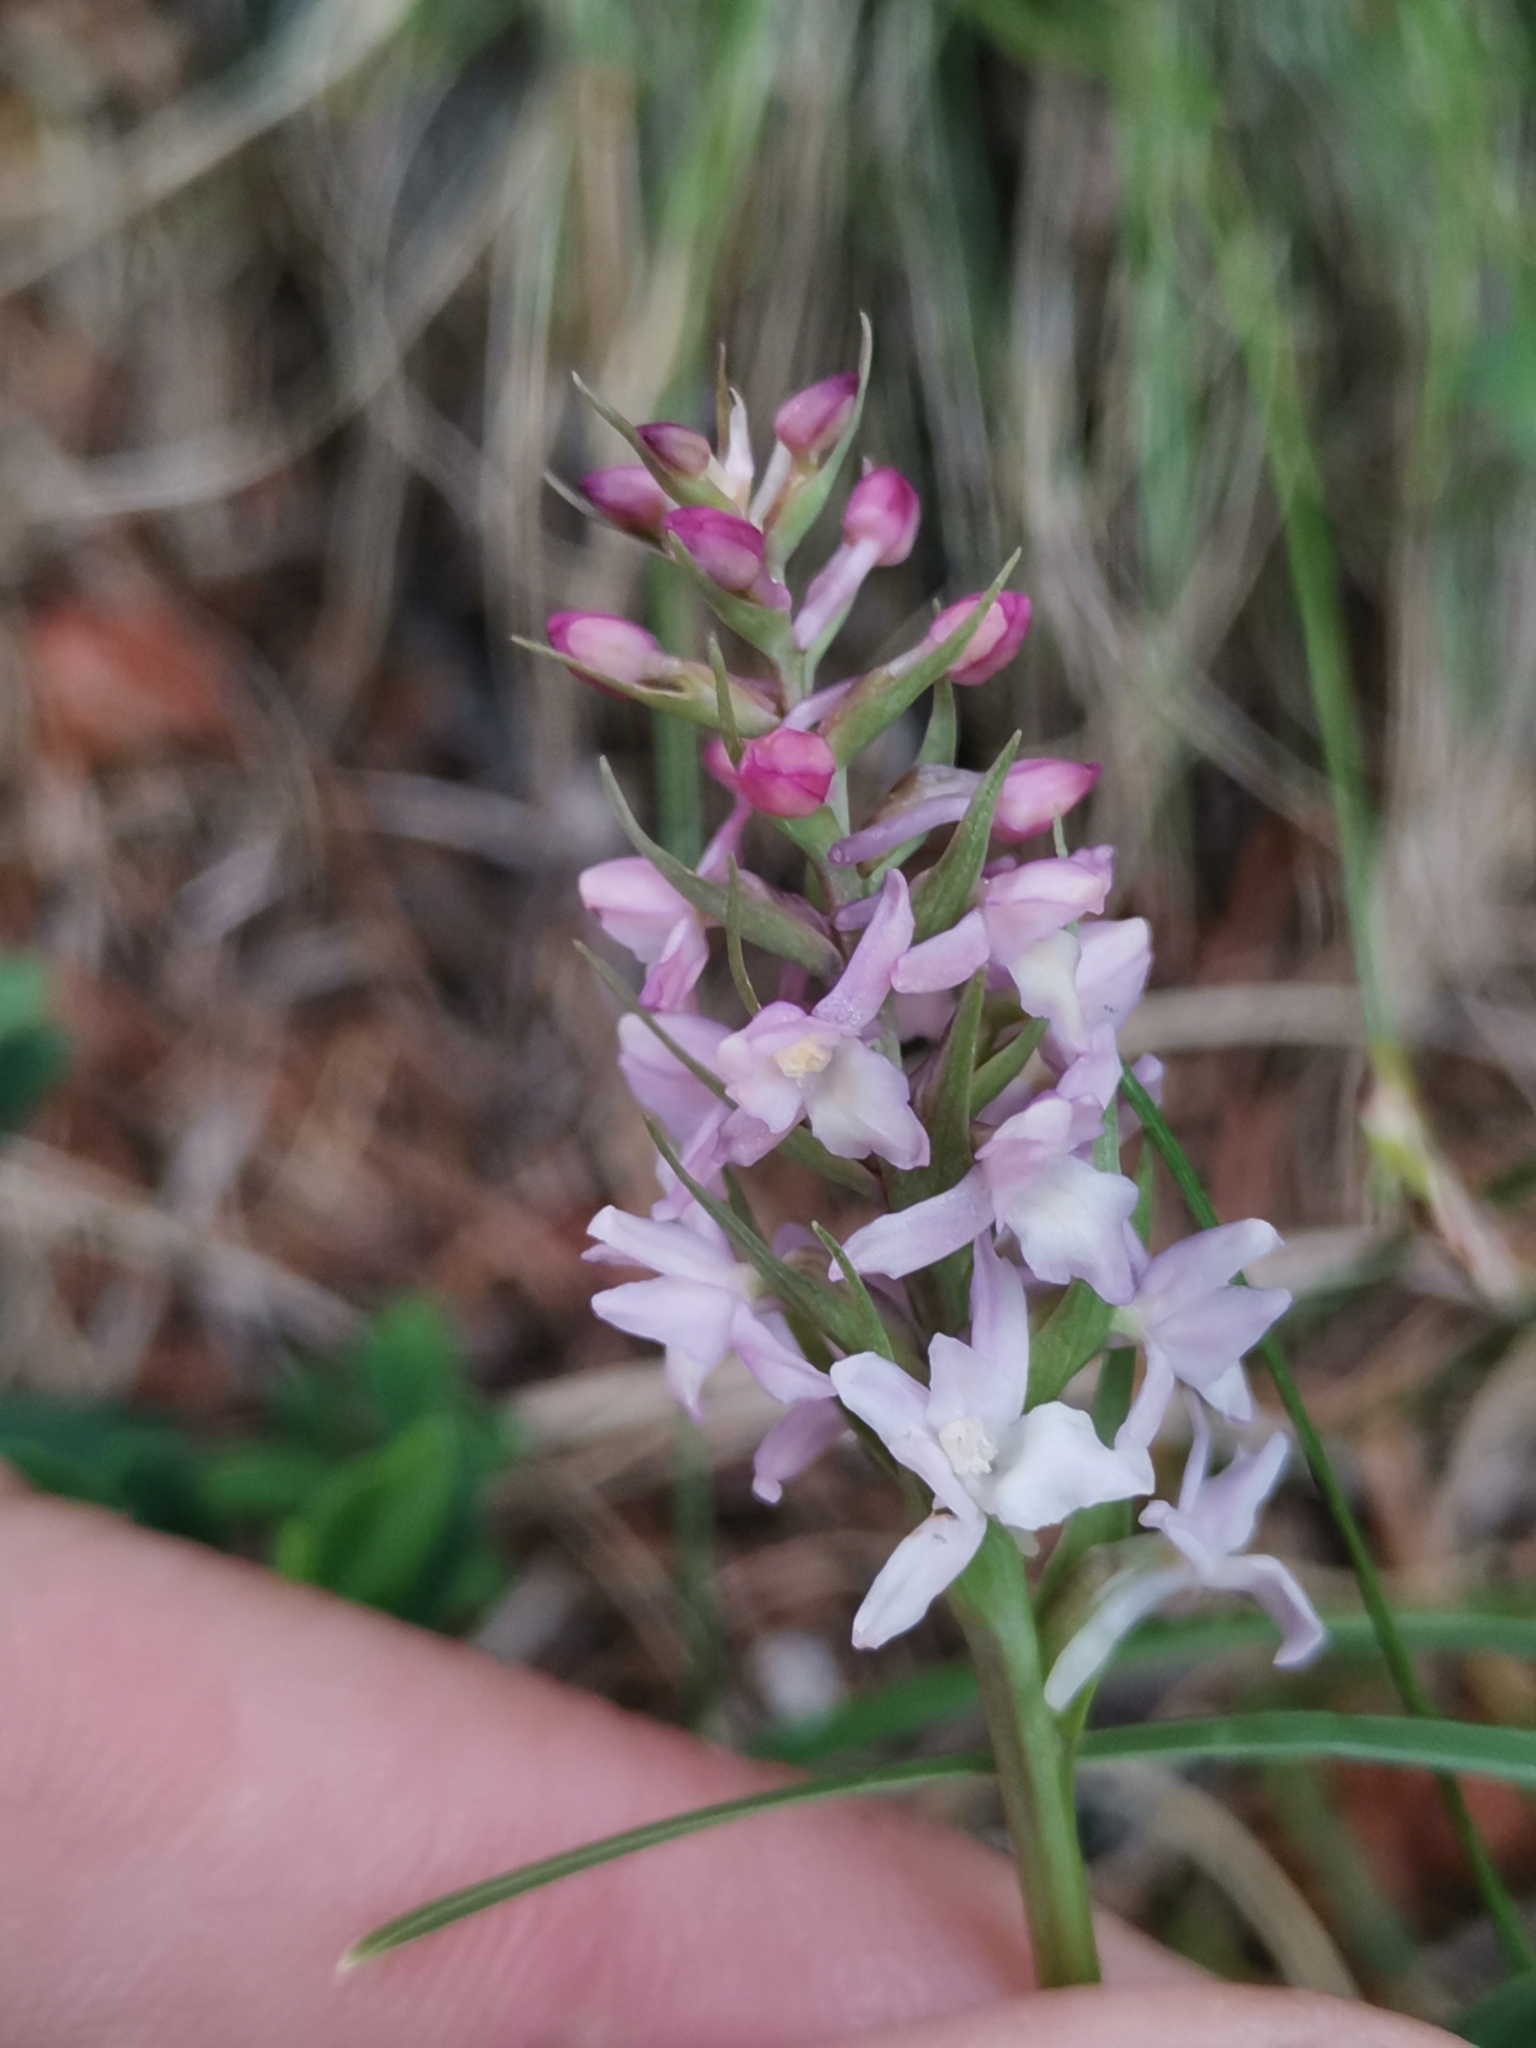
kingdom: Plantae
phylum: Tracheophyta
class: Liliopsida
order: Asparagales
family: Orchidaceae
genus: Gymnadenia
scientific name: Gymnadenia odoratissima
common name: Scented gymnadenia
